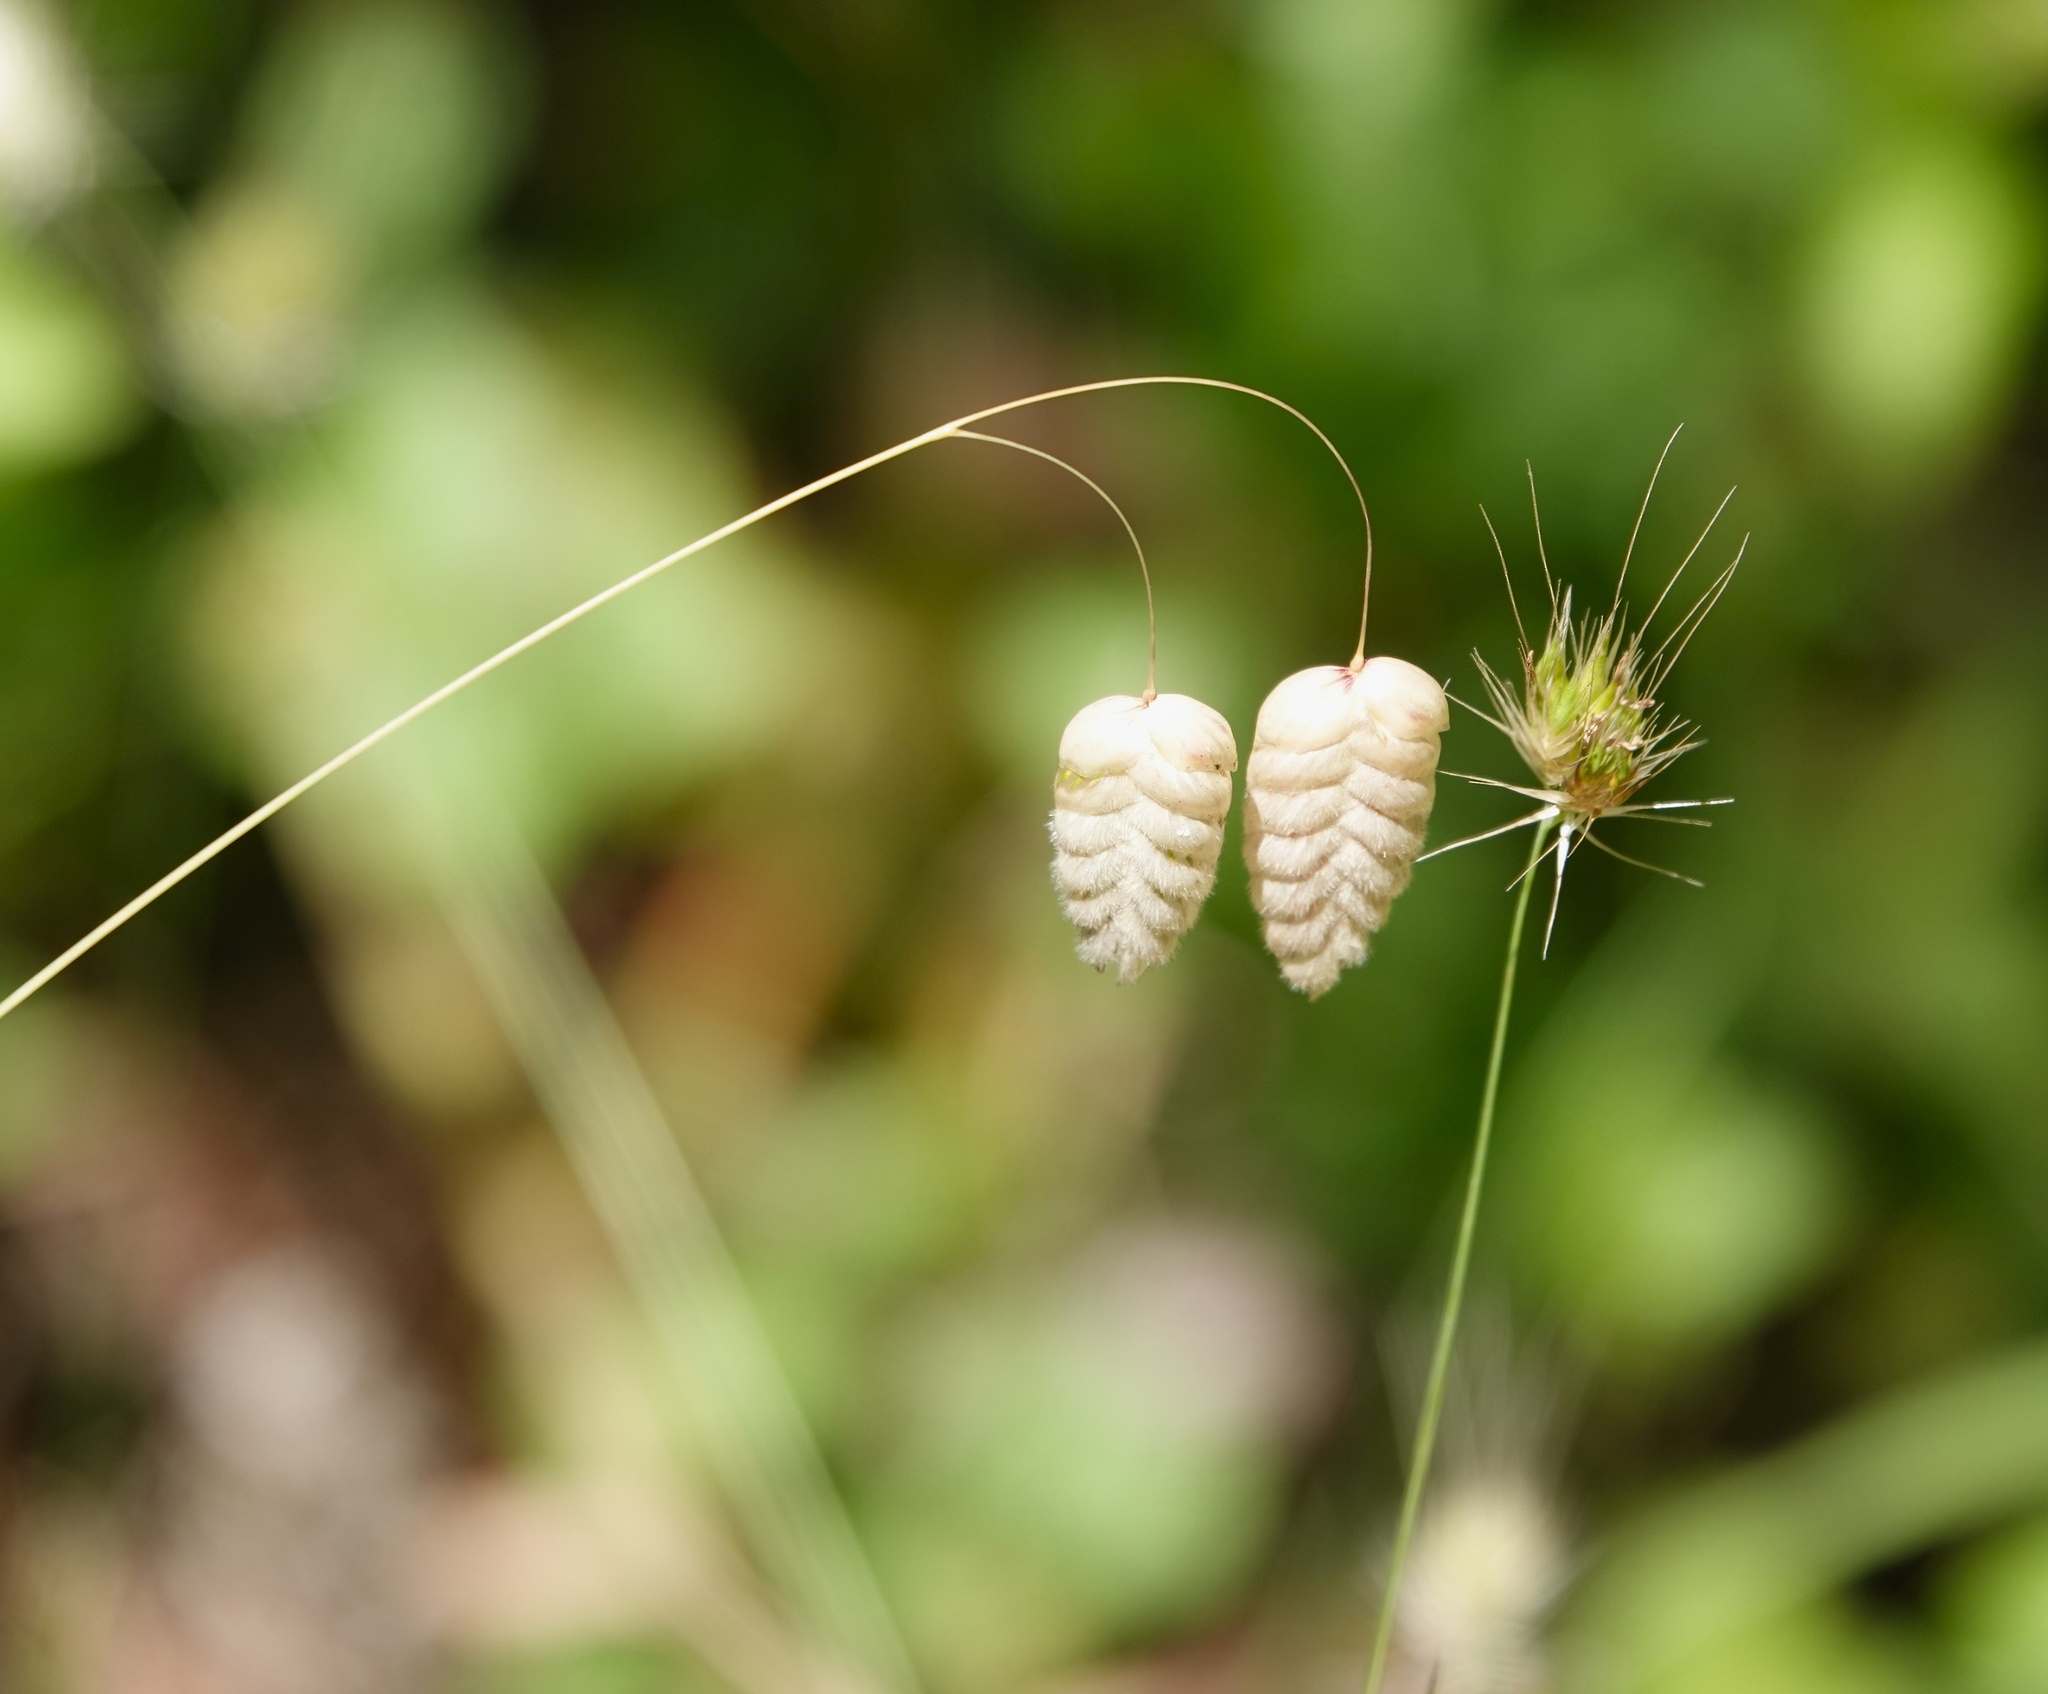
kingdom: Plantae
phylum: Tracheophyta
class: Liliopsida
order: Poales
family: Poaceae
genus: Briza
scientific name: Briza maxima
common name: Big quakinggrass
